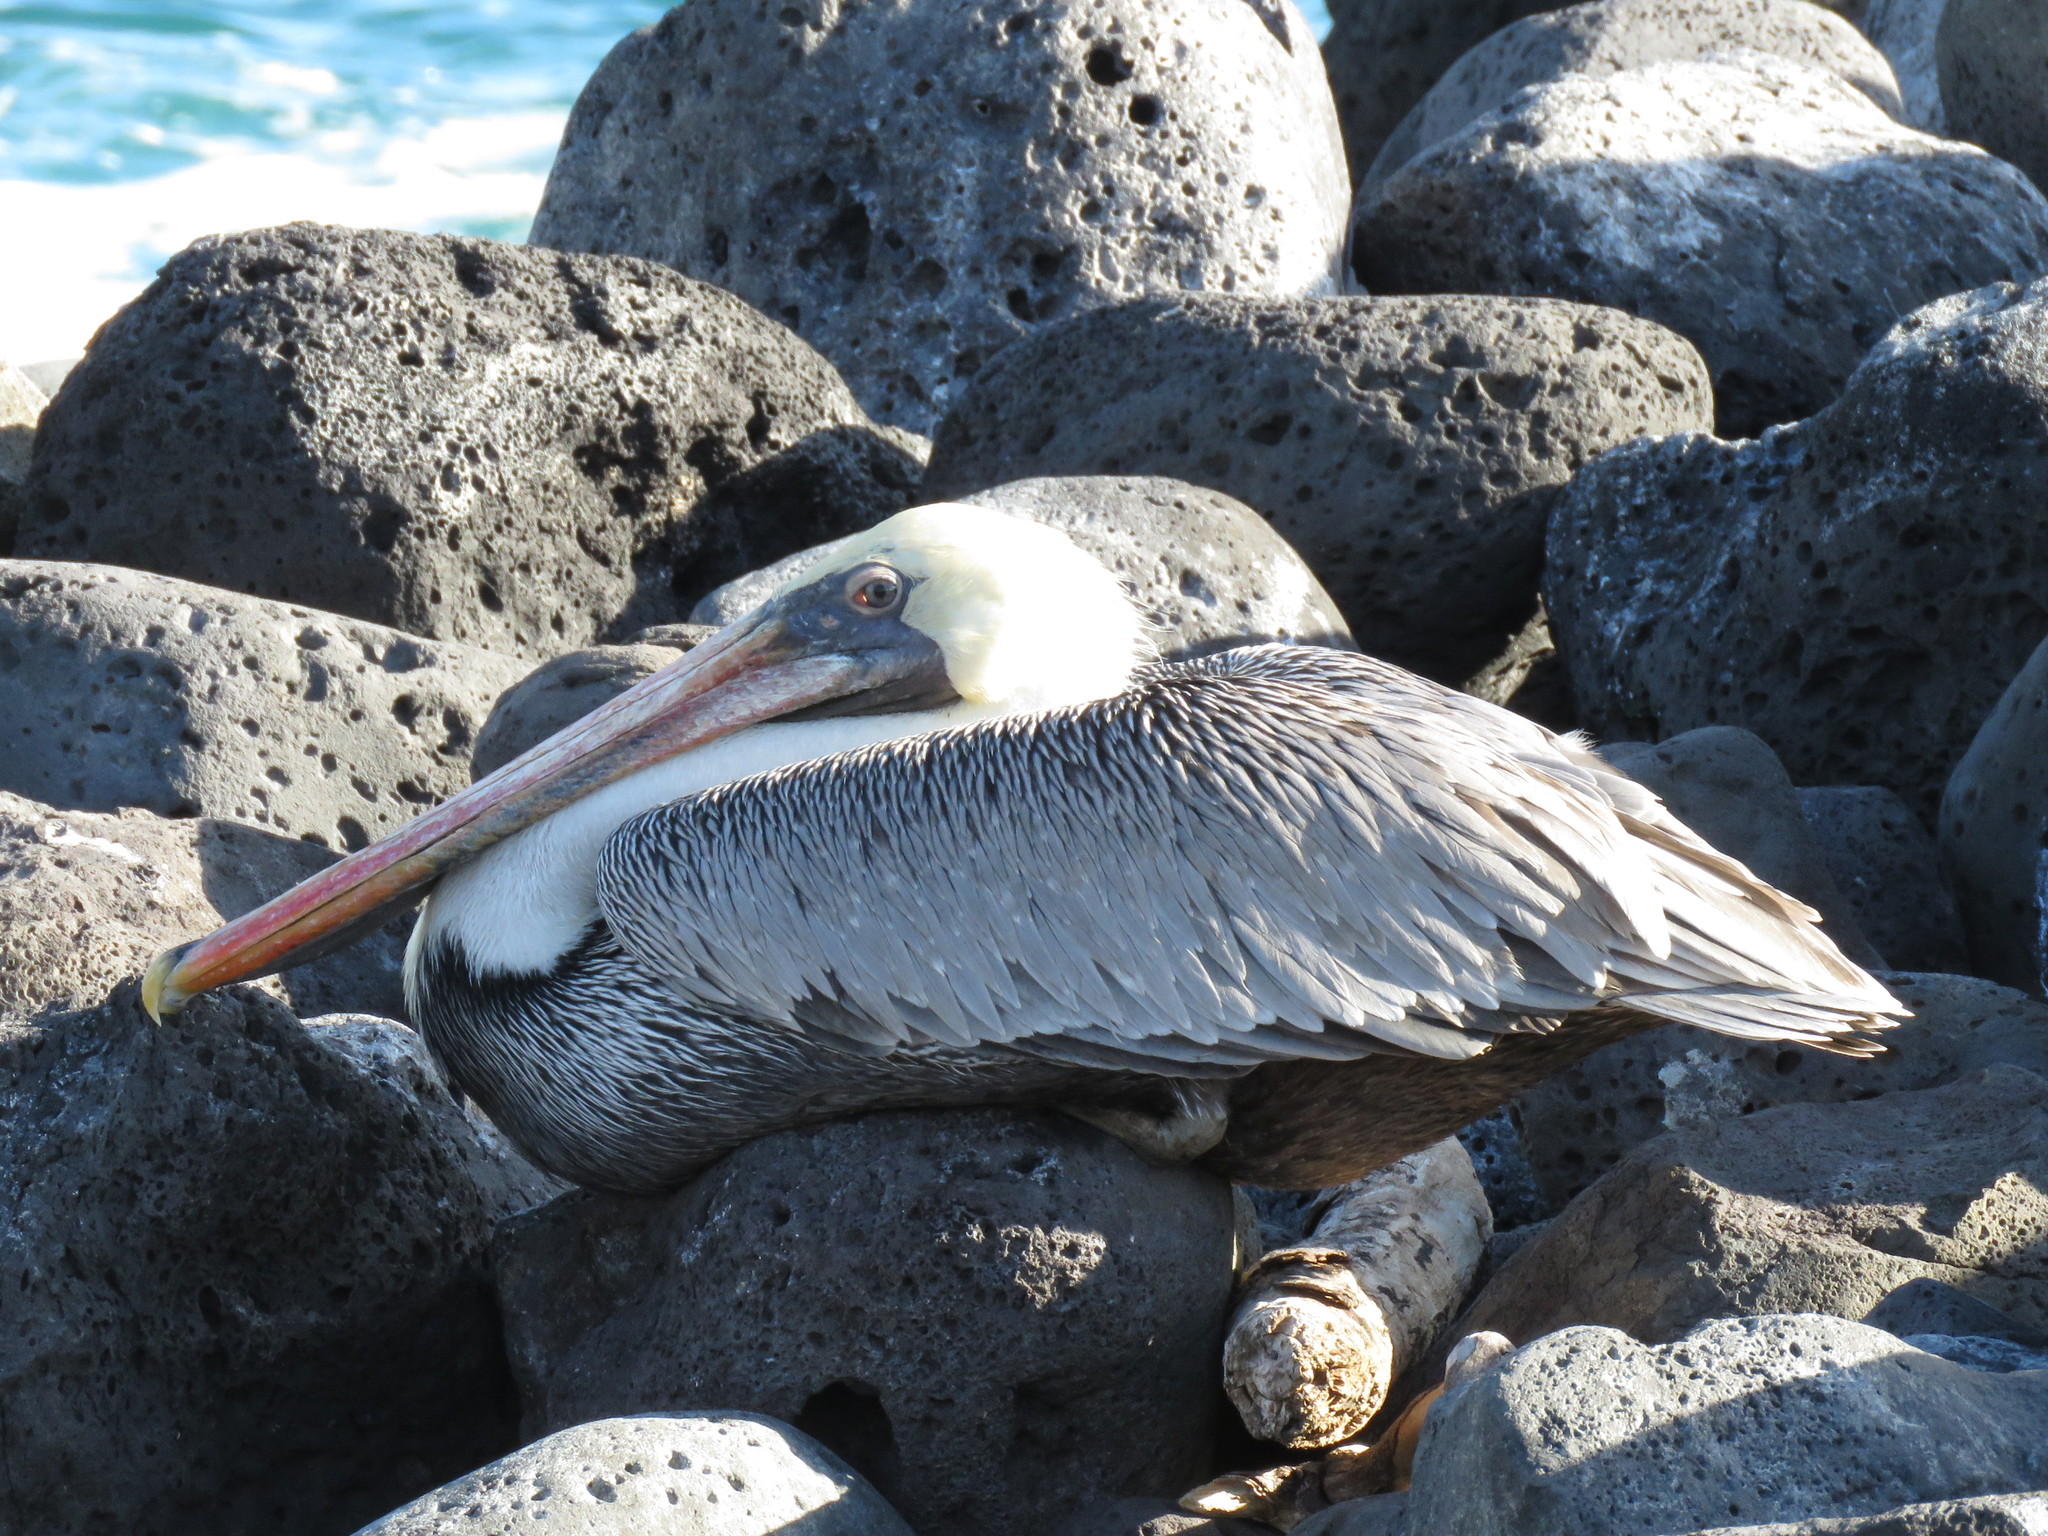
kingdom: Animalia
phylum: Chordata
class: Aves
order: Pelecaniformes
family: Pelecanidae
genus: Pelecanus
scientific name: Pelecanus occidentalis
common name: Brown pelican
